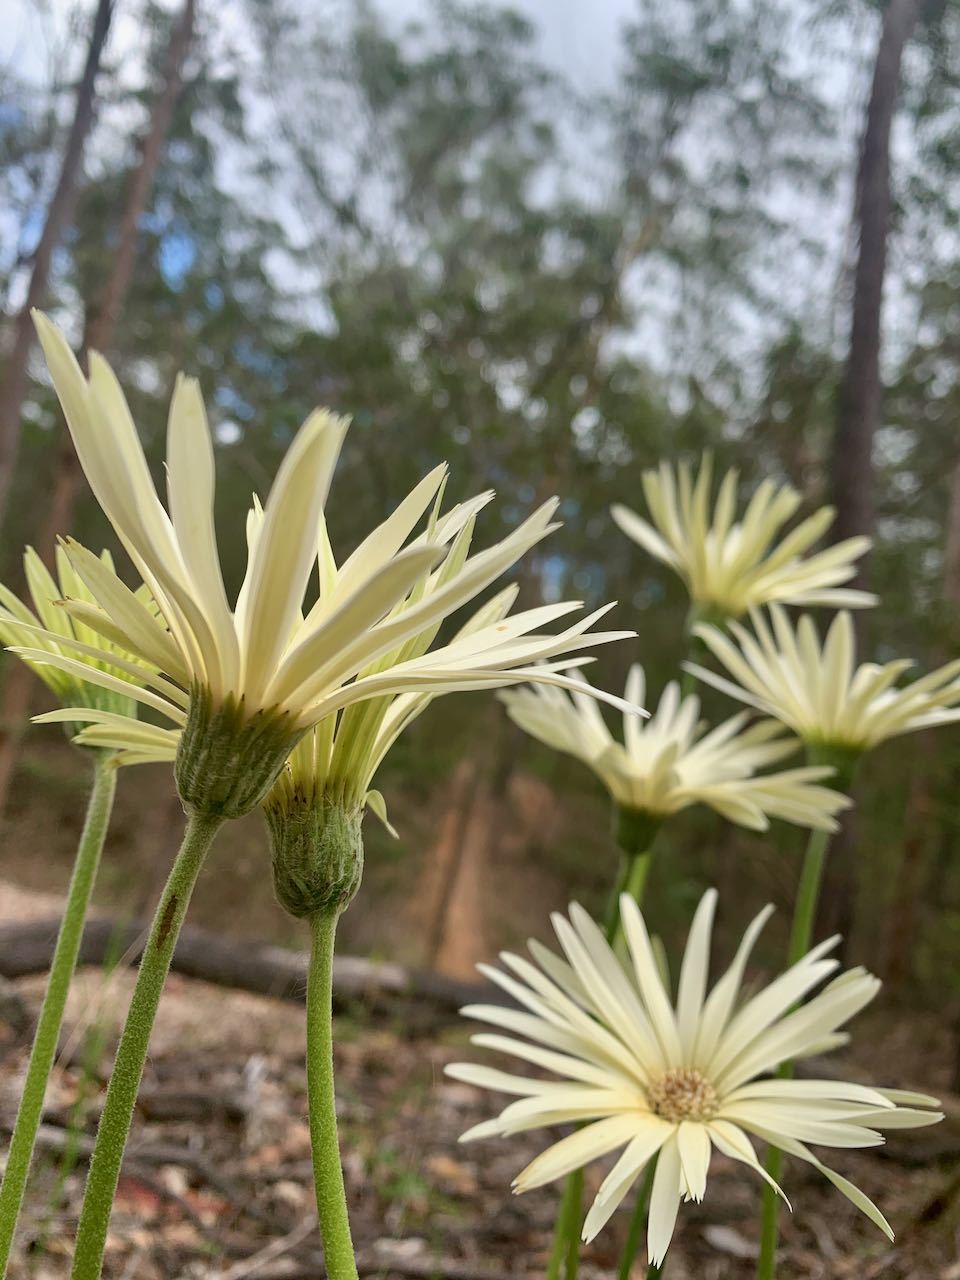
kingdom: Plantae
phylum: Tracheophyta
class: Magnoliopsida
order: Asterales
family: Asteraceae
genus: Gerbera
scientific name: Gerbera jamesonii
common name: African daisy
